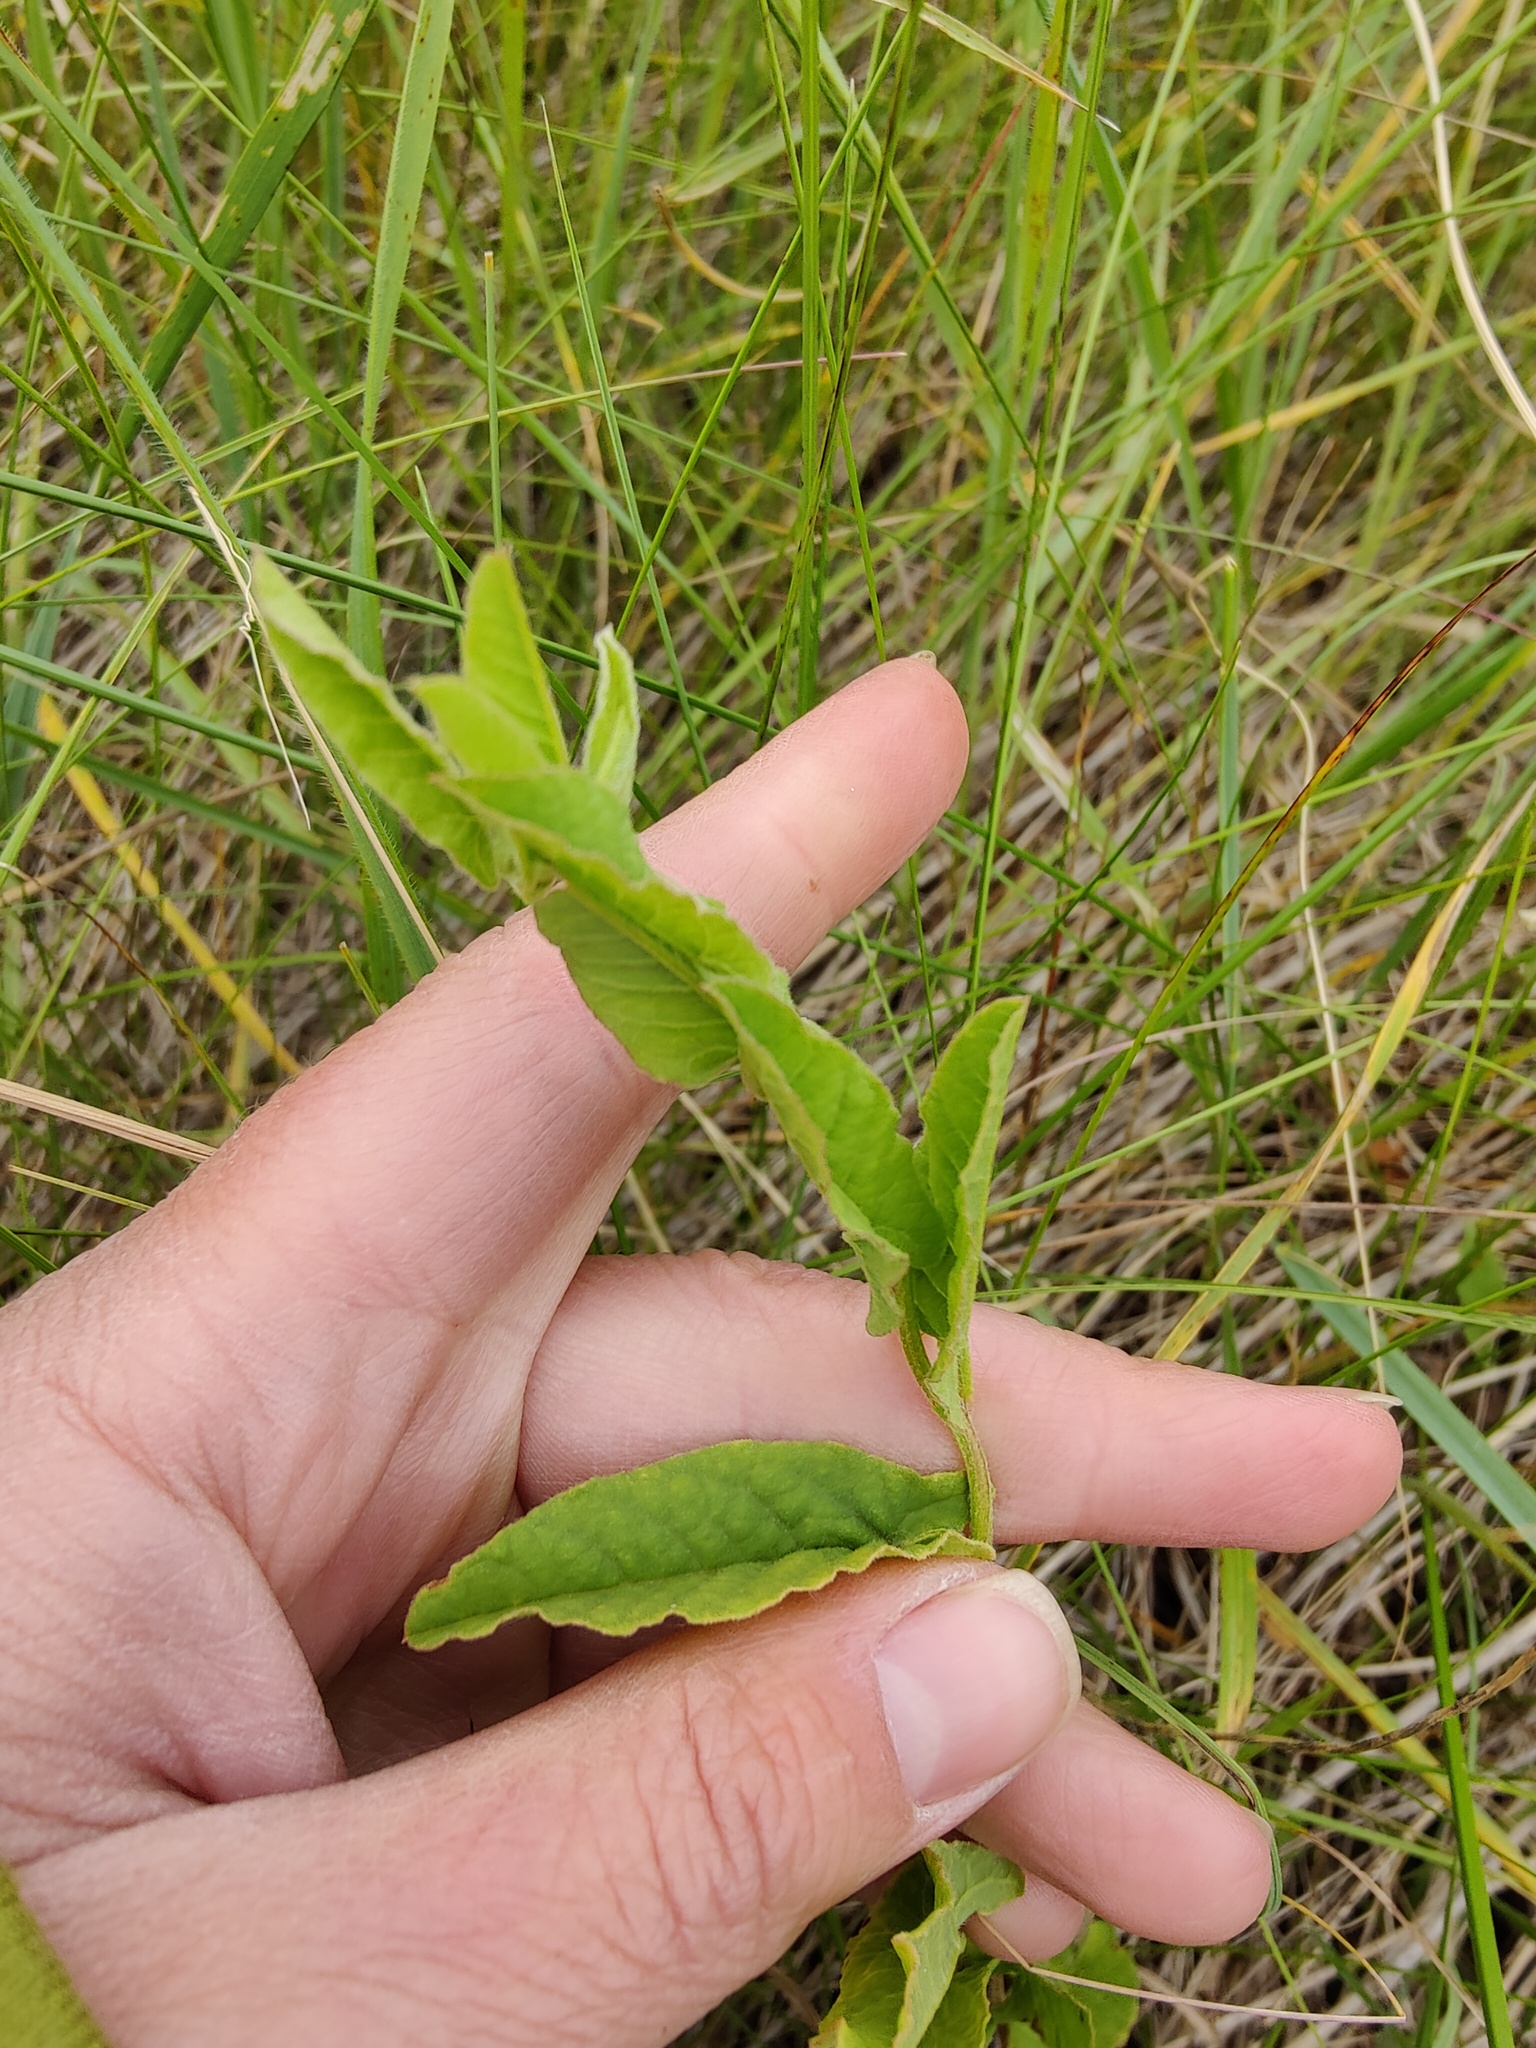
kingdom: Plantae
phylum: Tracheophyta
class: Magnoliopsida
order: Solanales
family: Convolvulaceae
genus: Convolvulus
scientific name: Convolvulus arvensis
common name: Field bindweed
